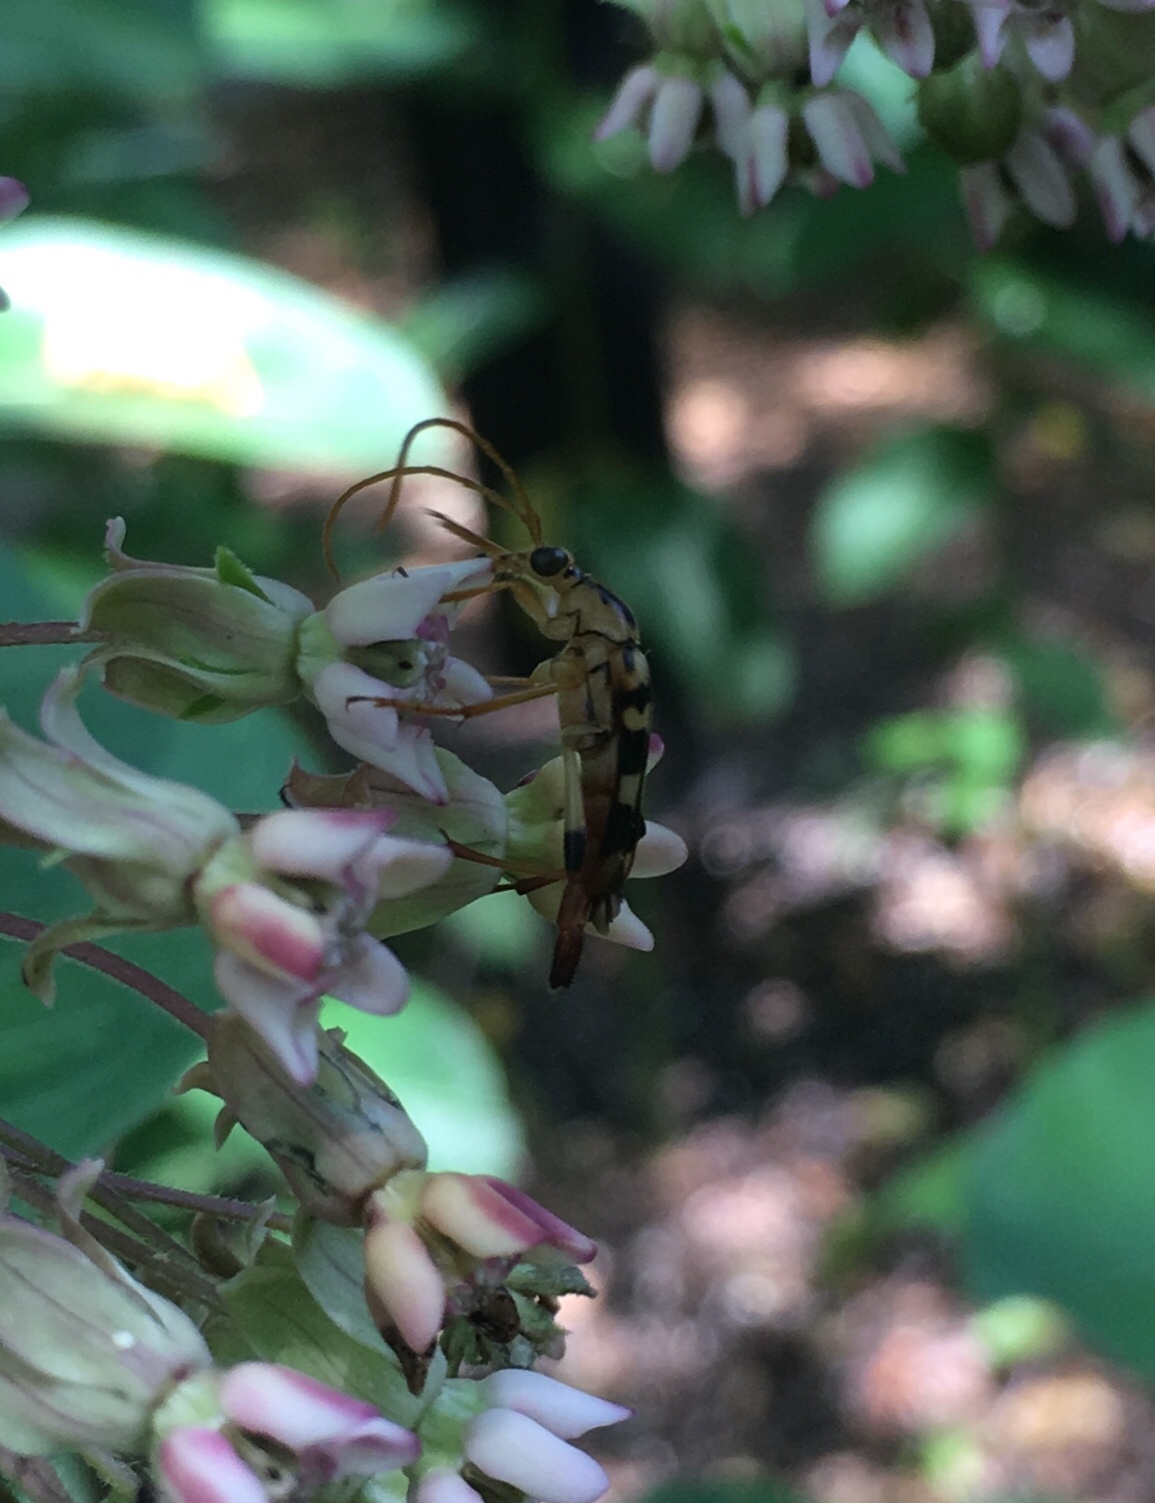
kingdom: Animalia
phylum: Arthropoda
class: Insecta
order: Coleoptera
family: Cerambycidae
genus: Strangalia
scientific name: Strangalia luteicornis
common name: Yellow-horned flower longhorn beetle
